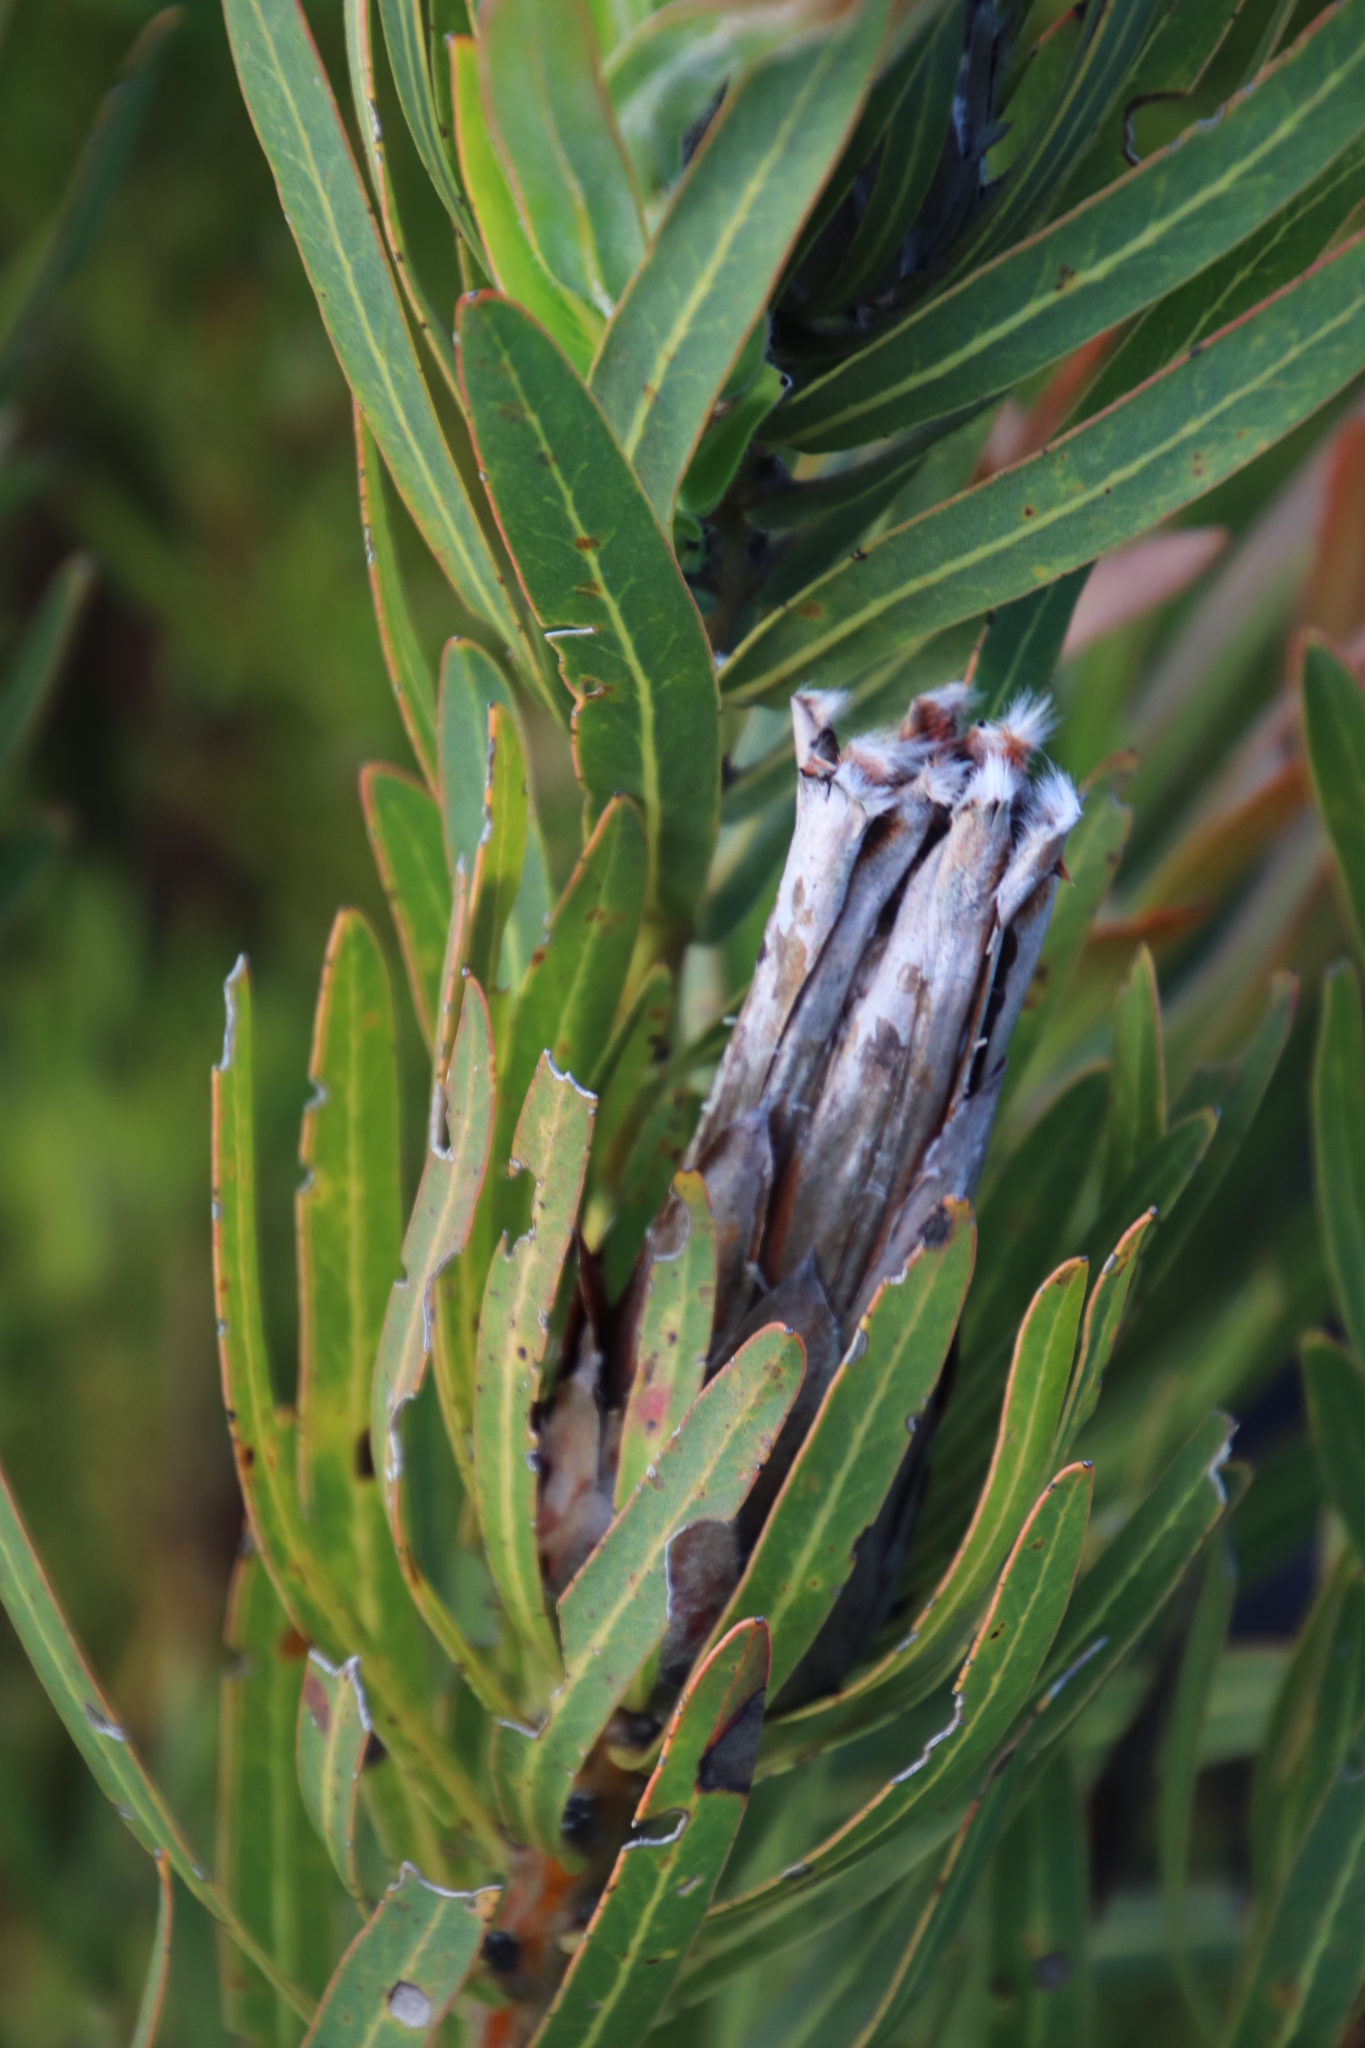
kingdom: Plantae
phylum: Tracheophyta
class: Magnoliopsida
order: Proteales
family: Proteaceae
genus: Protea
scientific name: Protea lepidocarpodendron
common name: Black-bearded protea
